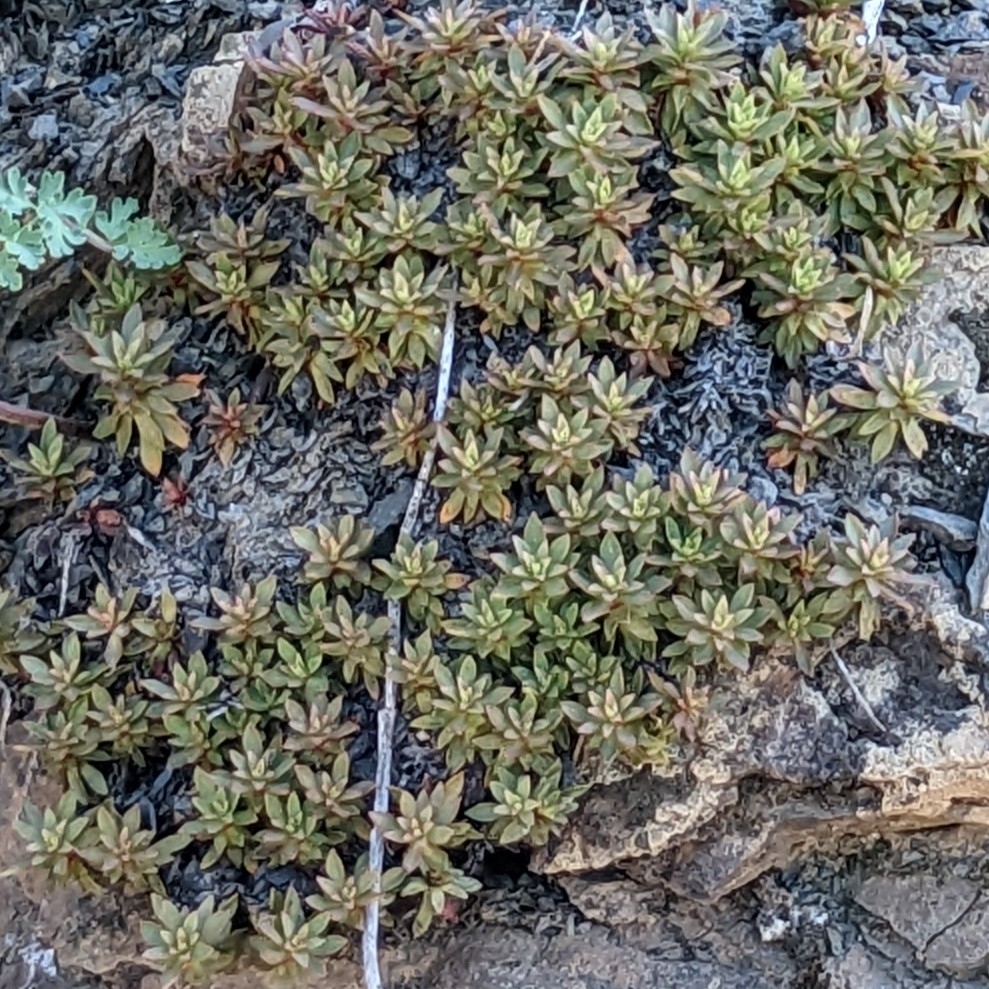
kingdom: Plantae
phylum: Tracheophyta
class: Magnoliopsida
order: Ericales
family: Primulaceae
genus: Androsace
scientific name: Androsace laevigata
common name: Cliff dwarf-primrose
